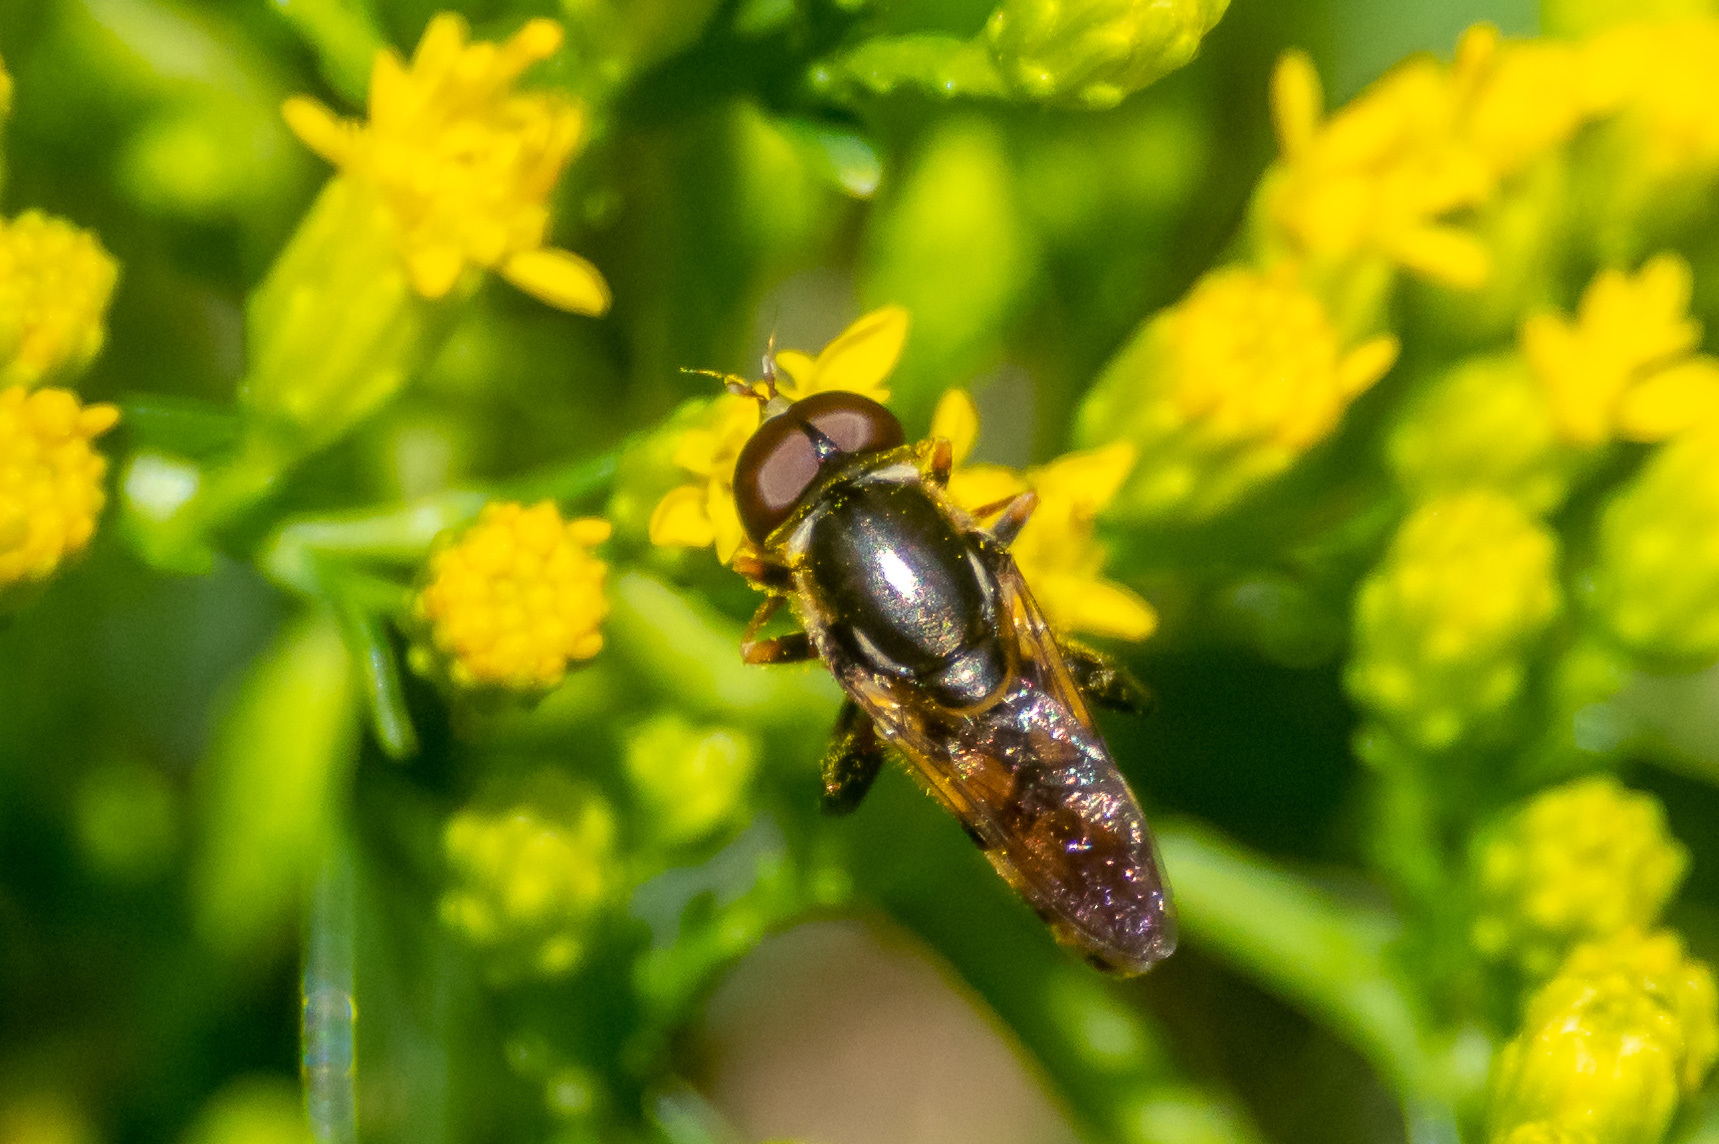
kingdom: Animalia
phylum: Arthropoda
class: Insecta
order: Diptera
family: Syrphidae
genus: Syritta
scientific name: Syritta pipiens
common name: Hover fly
